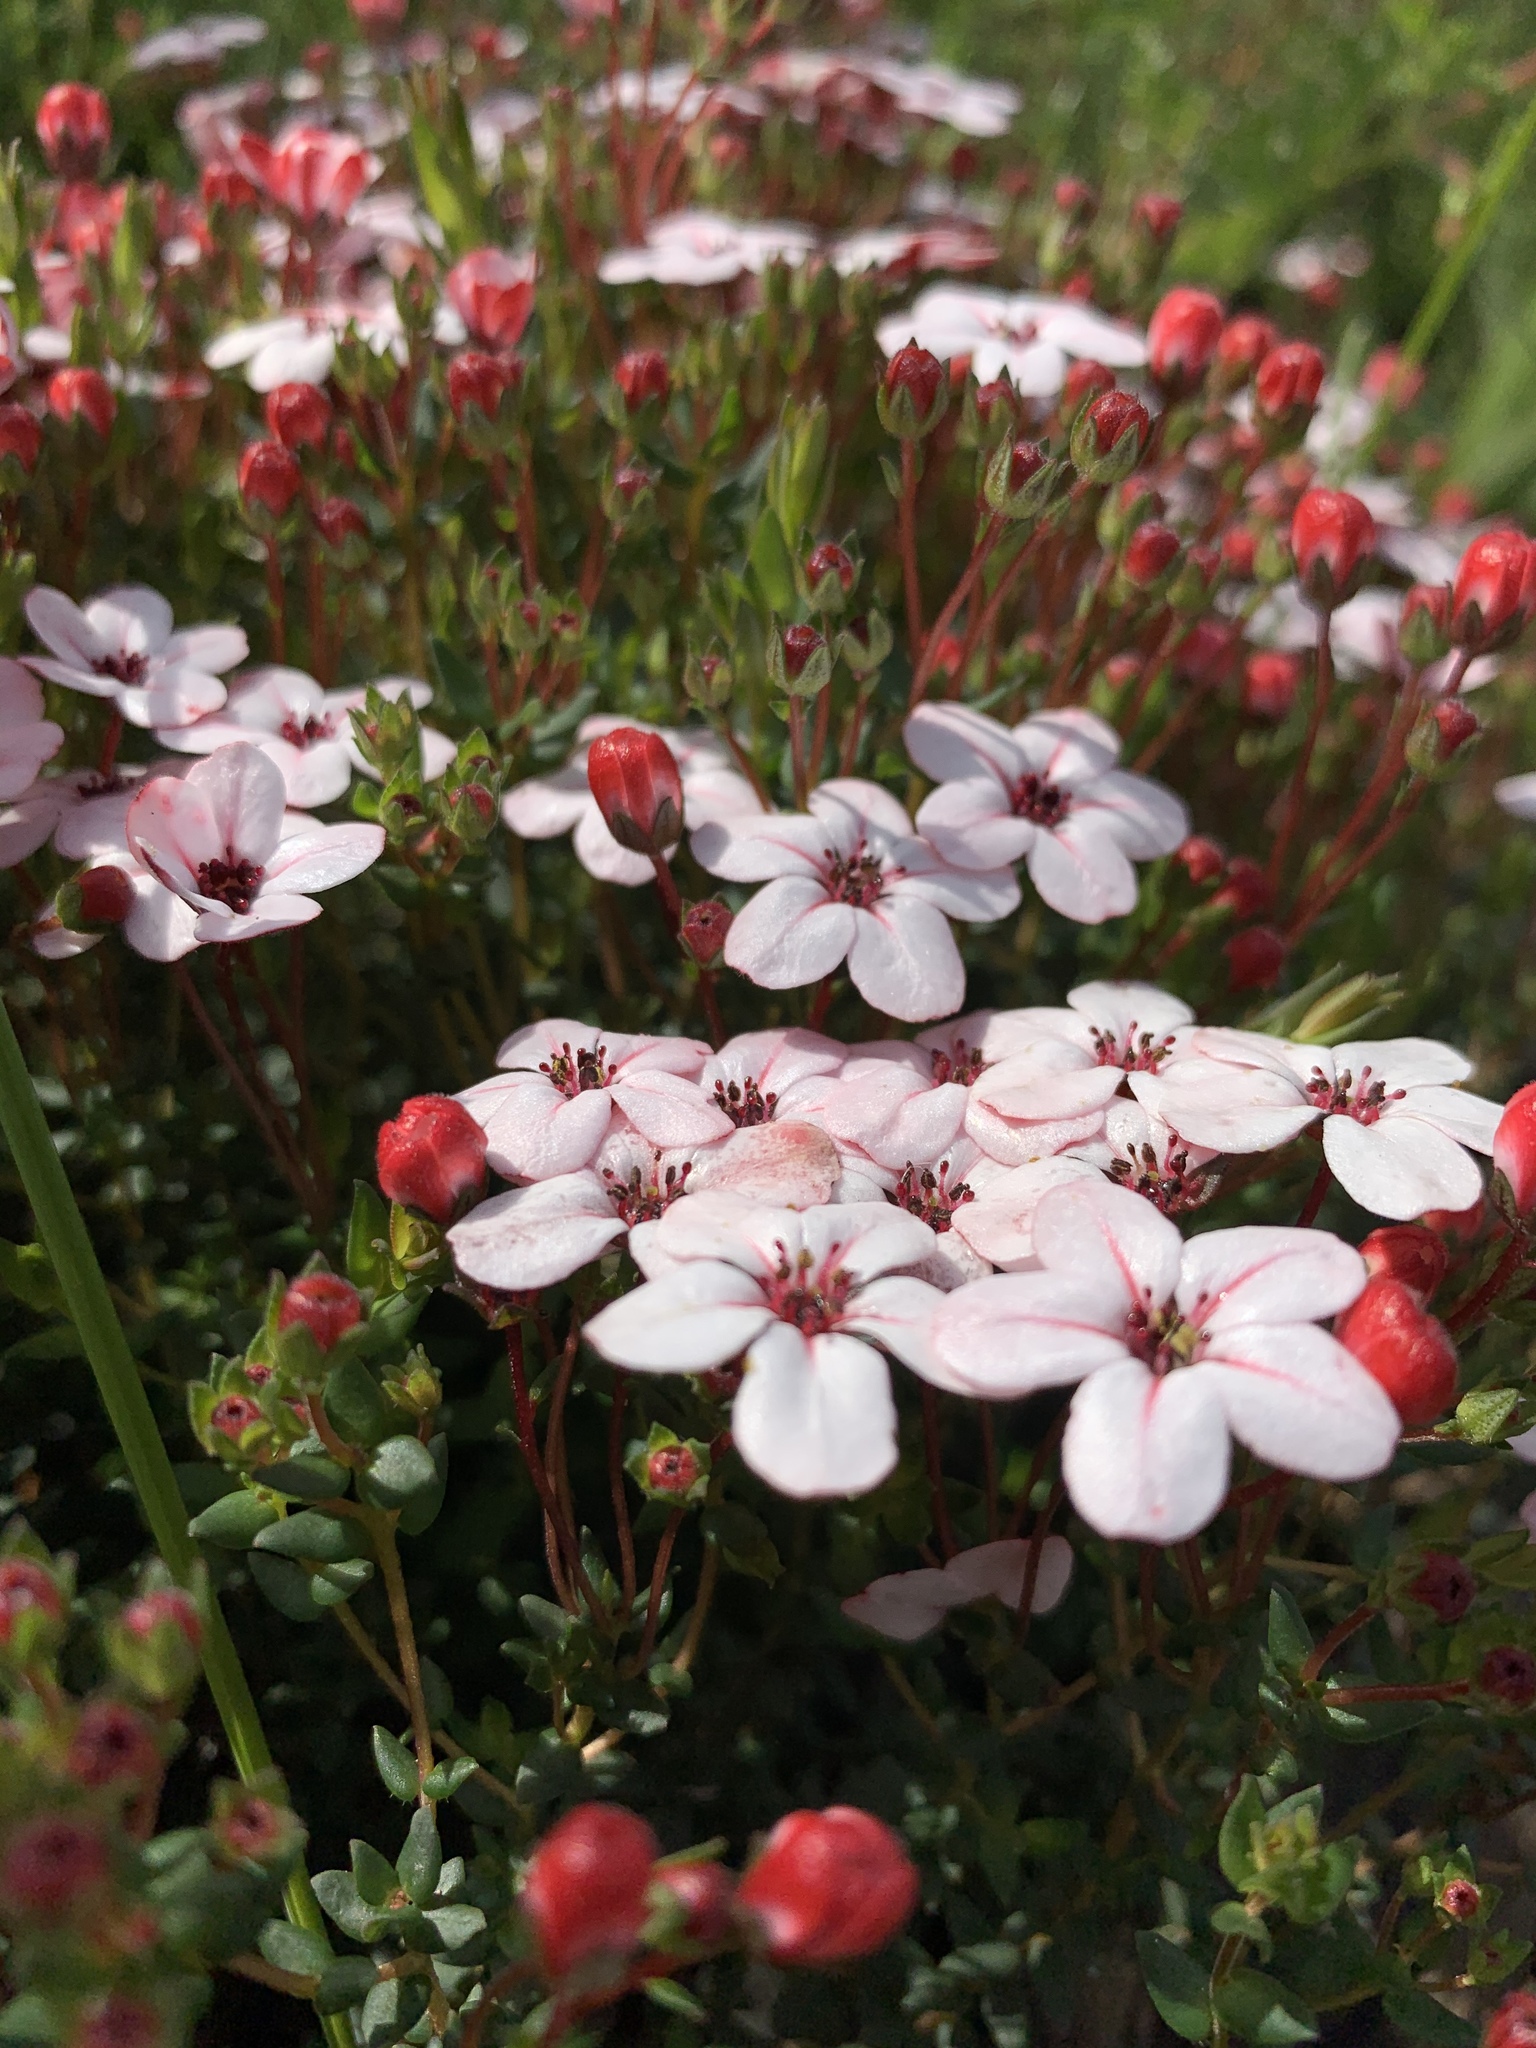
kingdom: Plantae
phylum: Tracheophyta
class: Magnoliopsida
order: Sapindales
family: Rutaceae
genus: Adenandra
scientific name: Adenandra marginata
